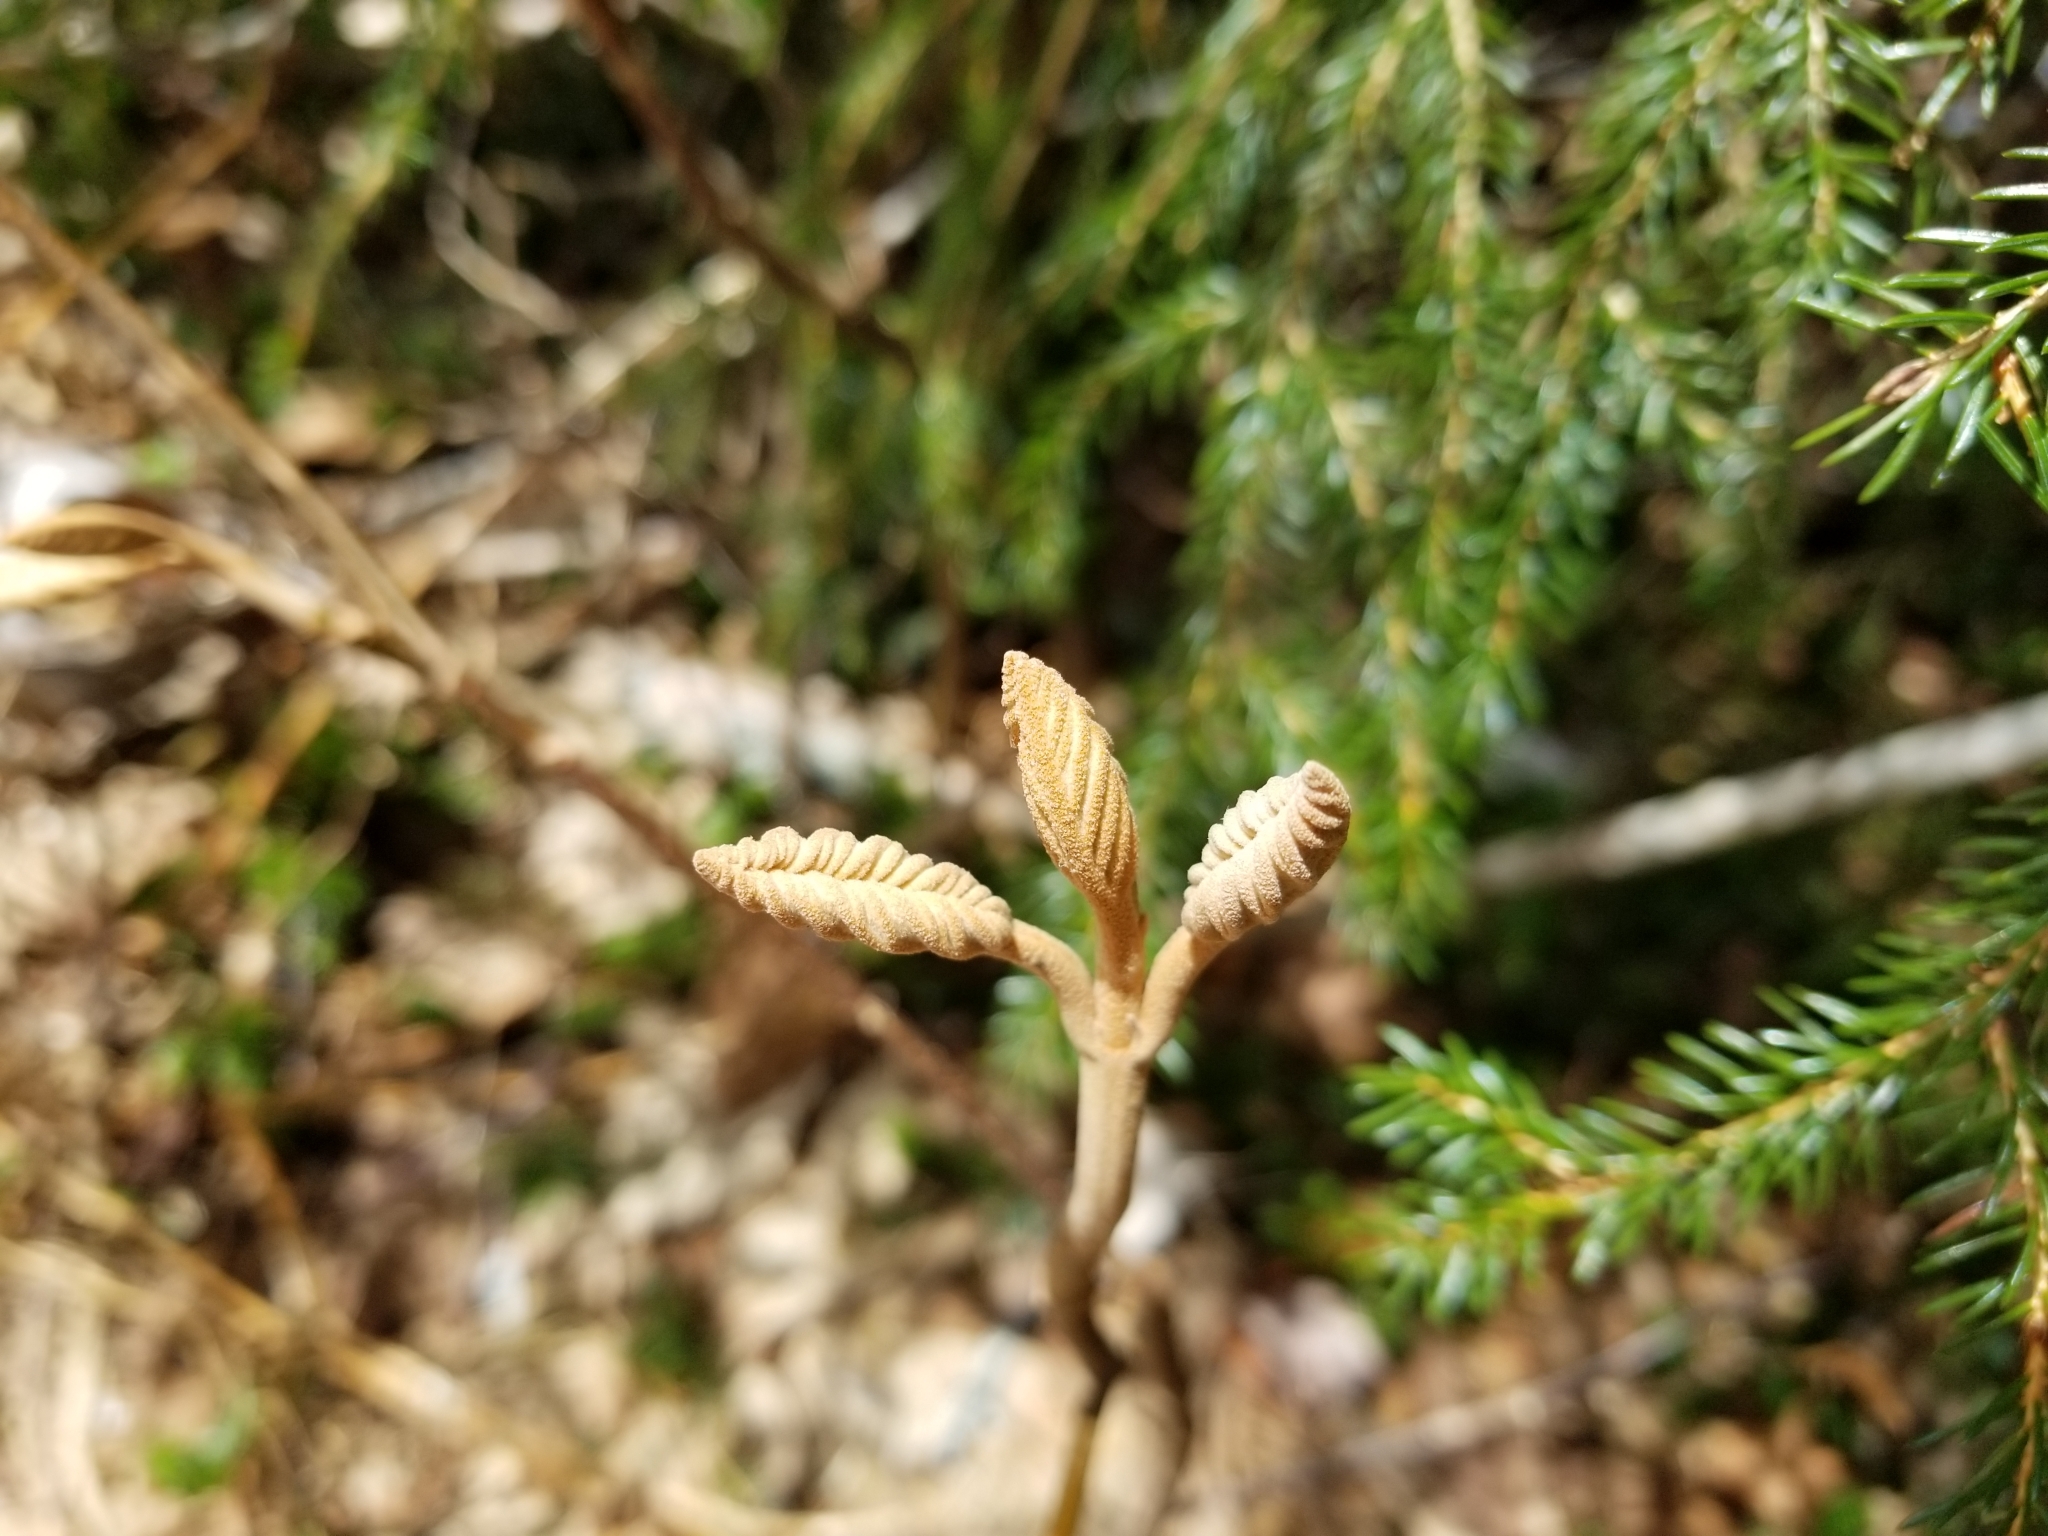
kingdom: Plantae
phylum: Tracheophyta
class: Magnoliopsida
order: Dipsacales
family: Viburnaceae
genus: Viburnum
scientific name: Viburnum lantanoides
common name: Hobblebush
